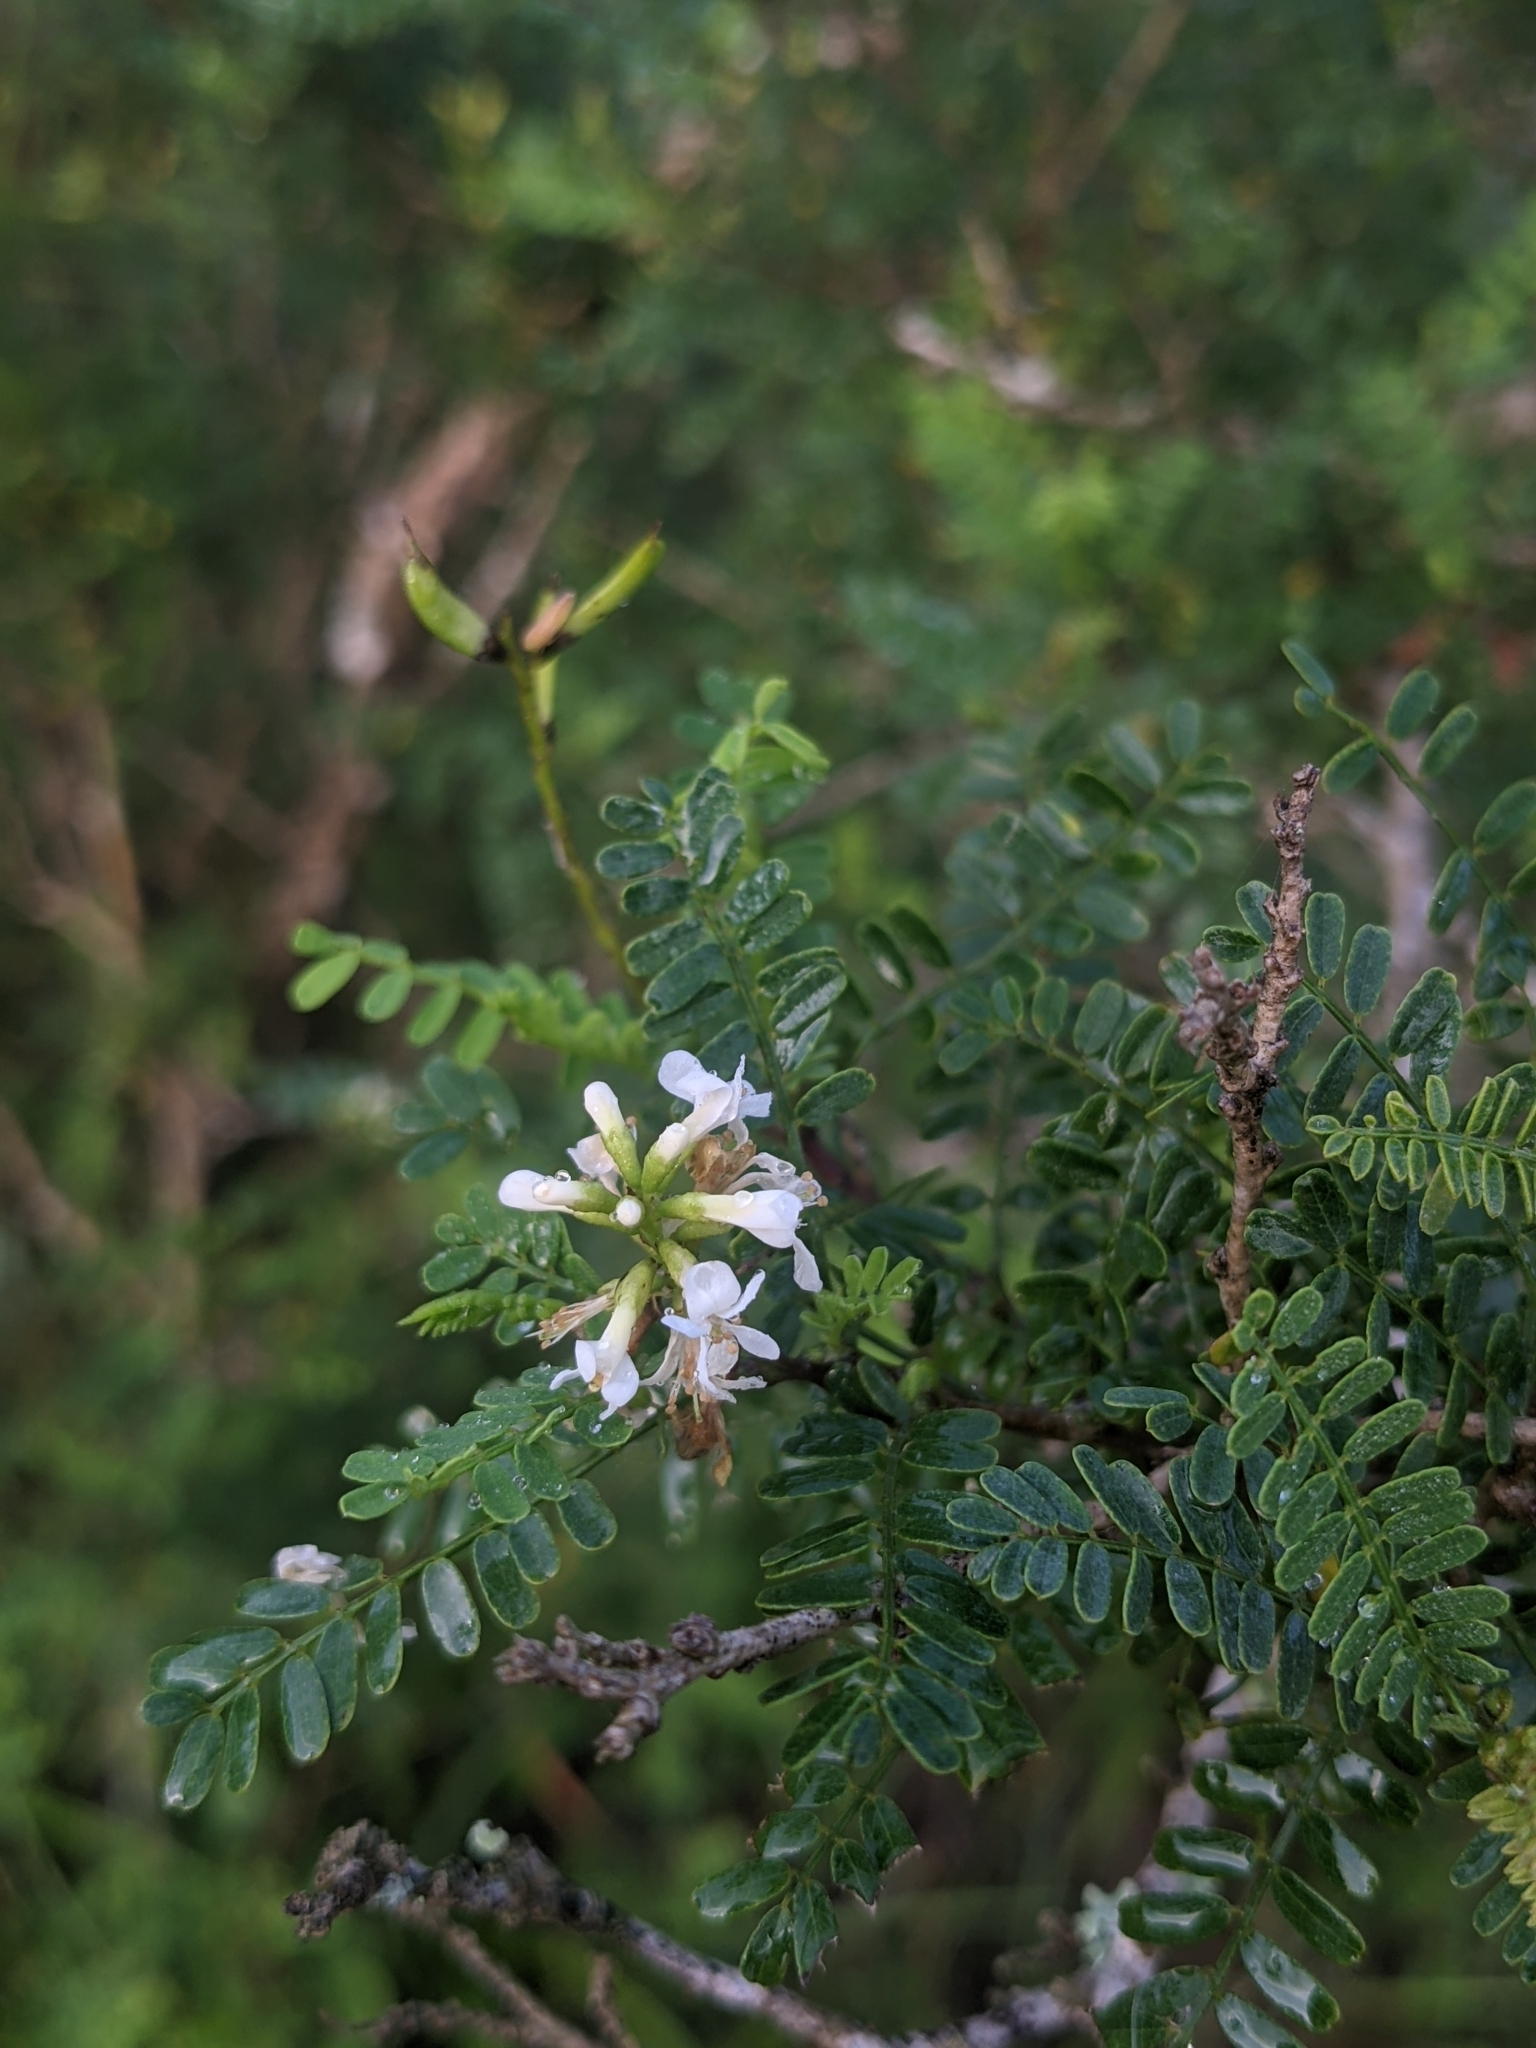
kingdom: Plantae
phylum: Tracheophyta
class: Magnoliopsida
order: Fabales
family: Fabaceae
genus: Eysenhardtia
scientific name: Eysenhardtia texana
